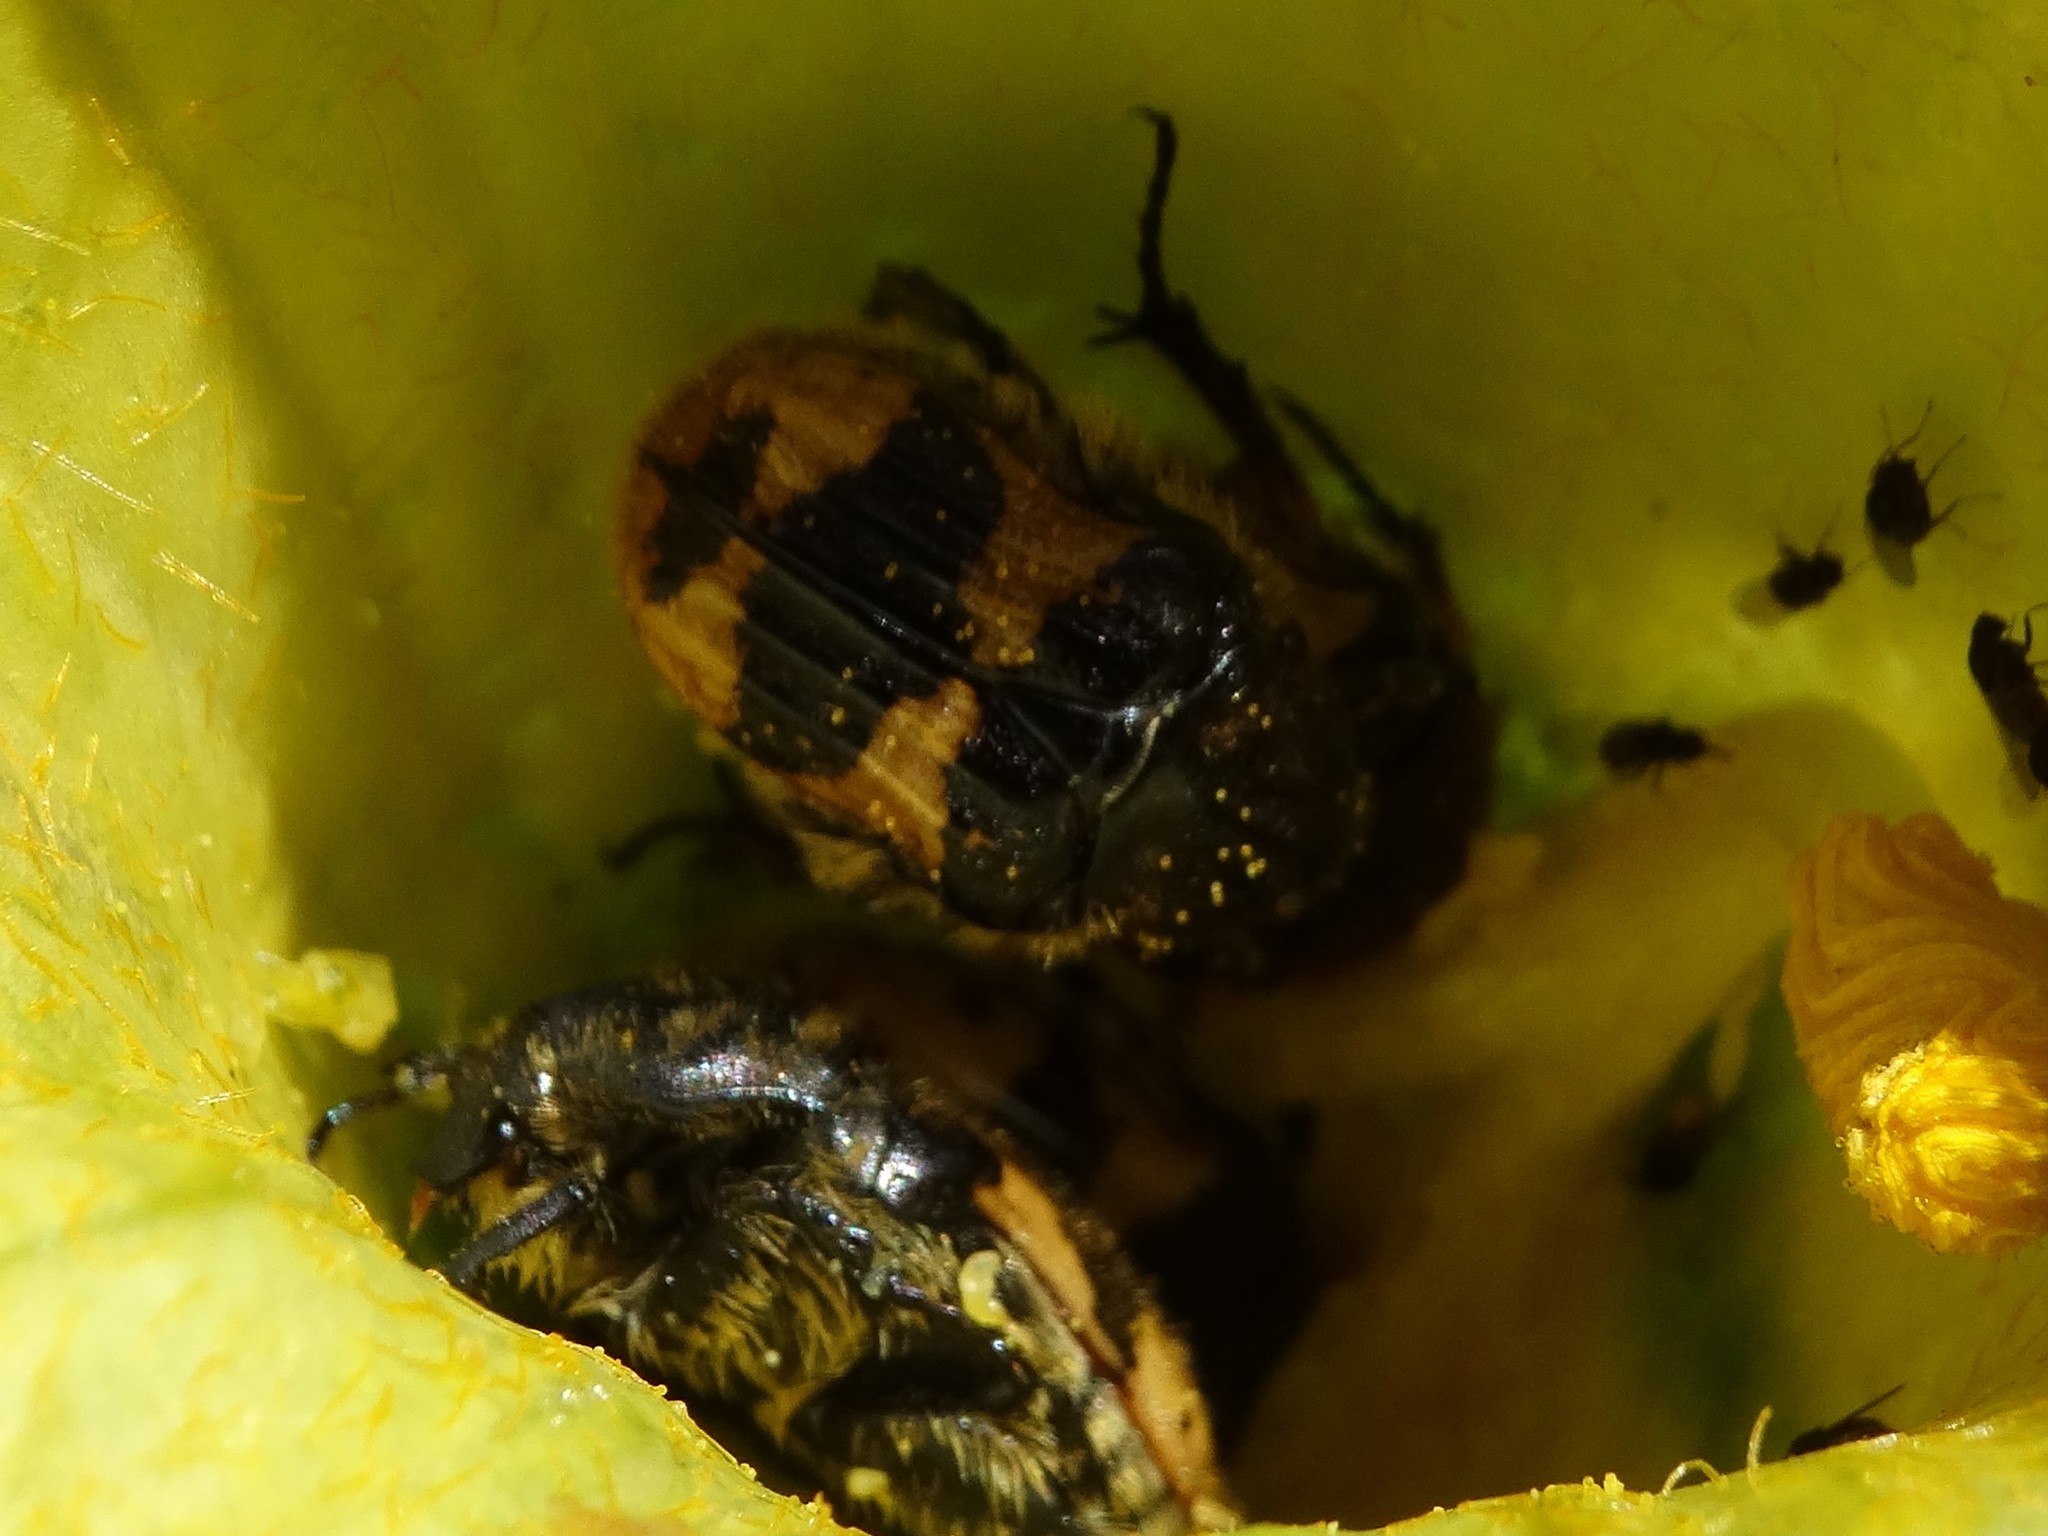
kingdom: Animalia
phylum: Arthropoda
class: Insecta
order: Coleoptera
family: Scarabaeidae
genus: Euphoria
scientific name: Euphoria basalis
